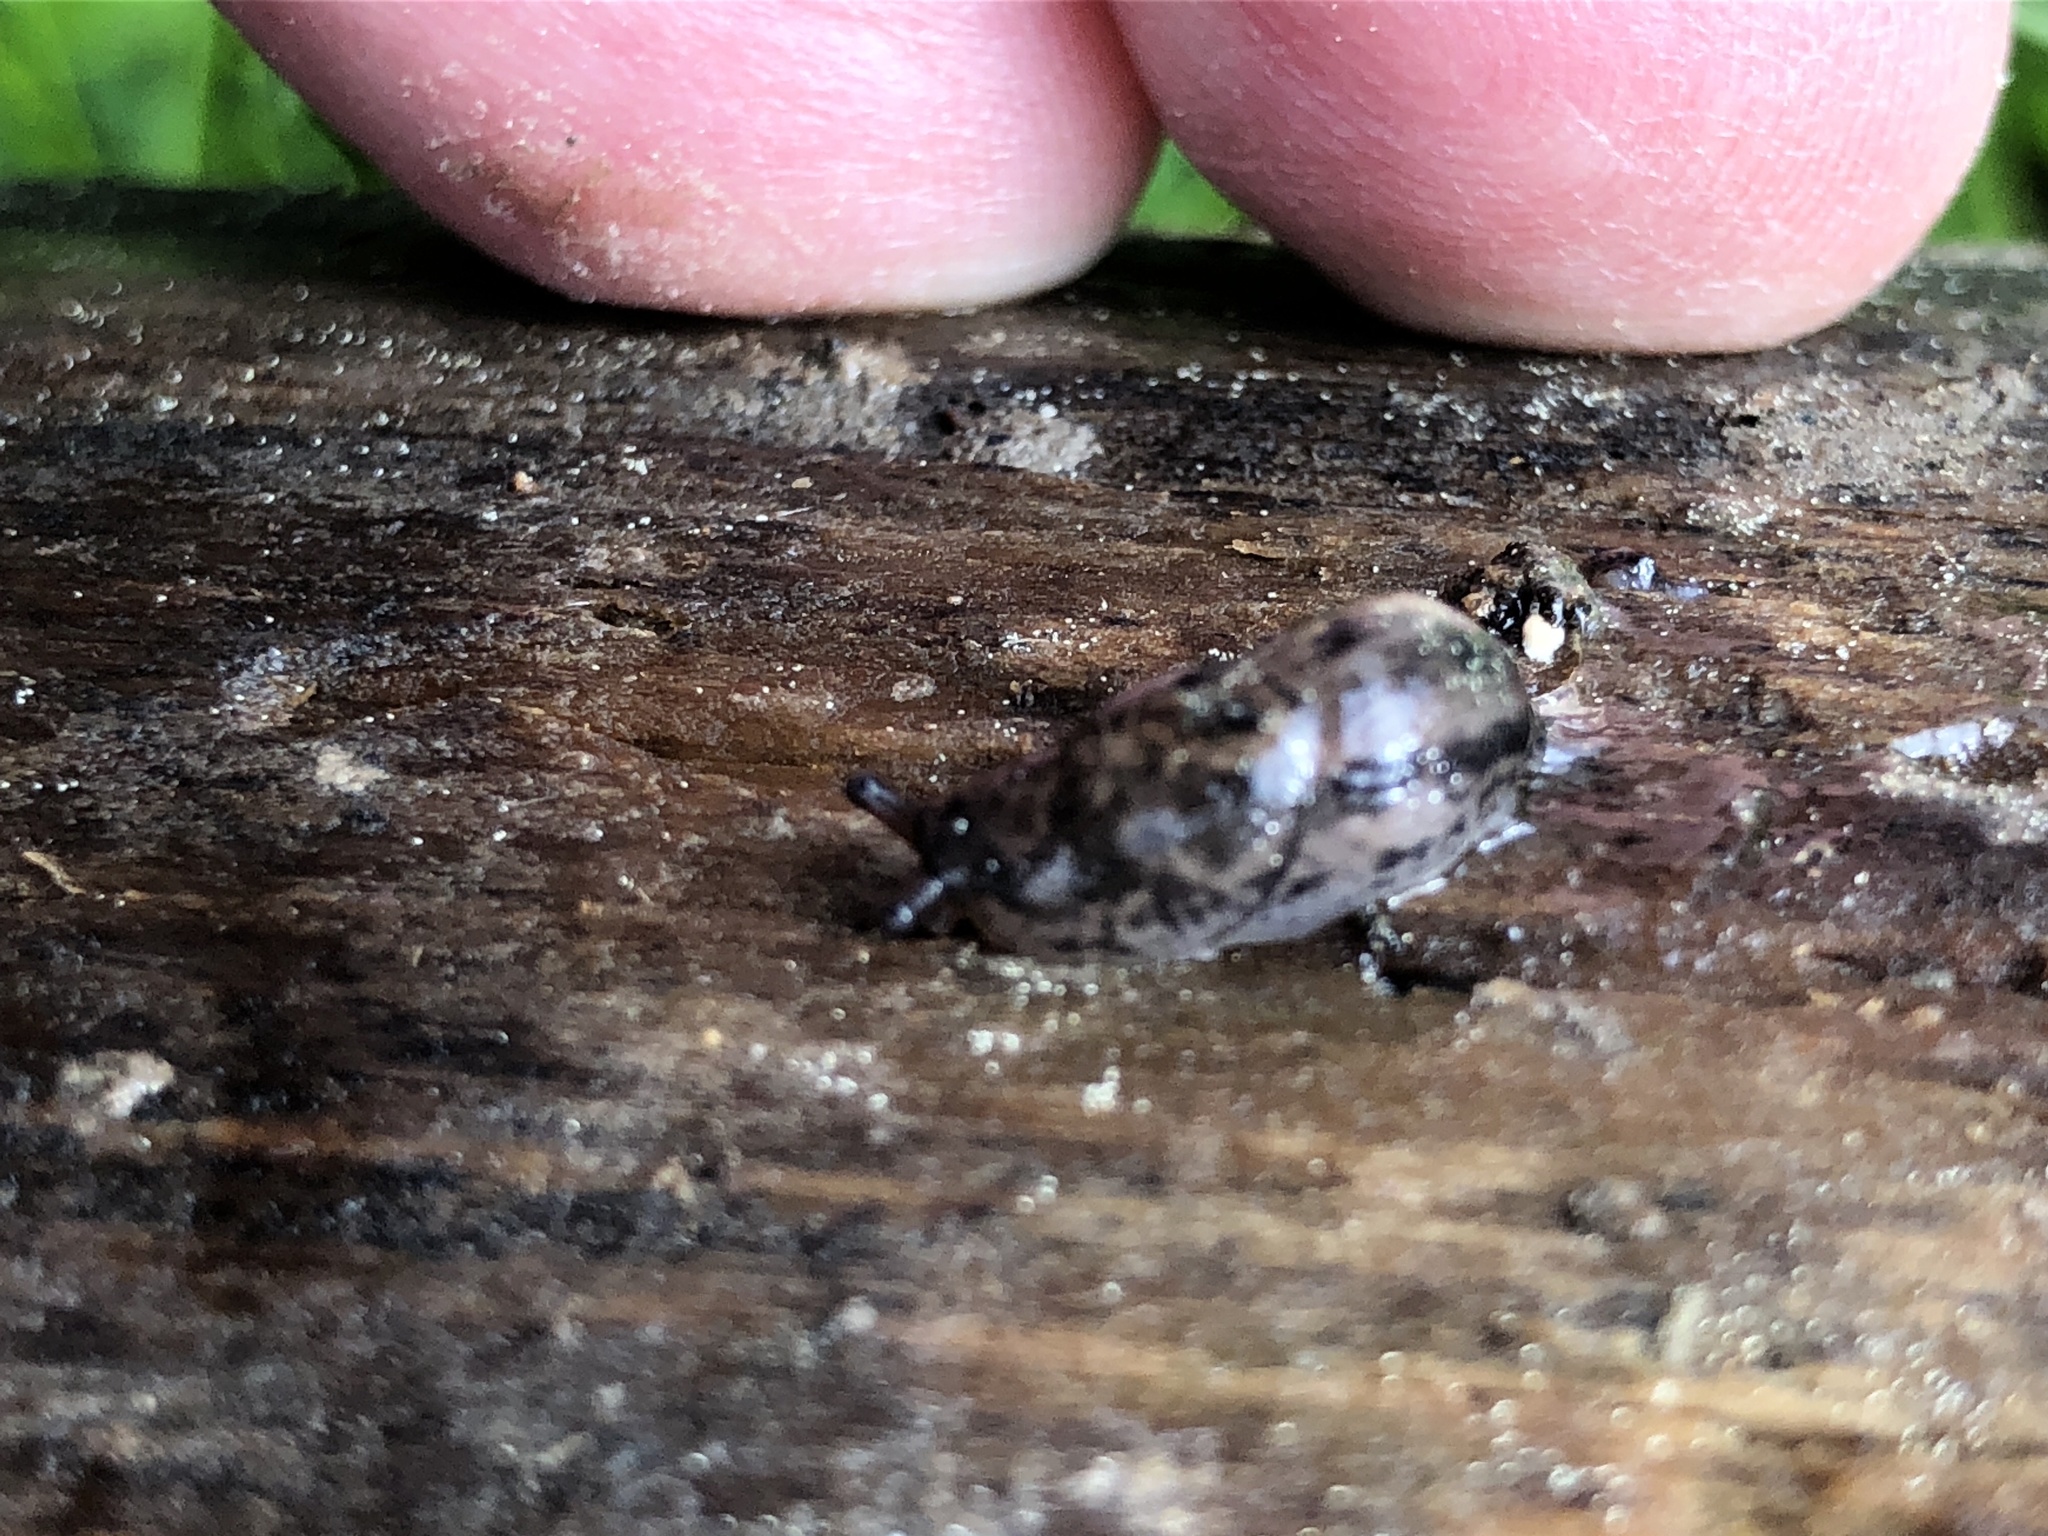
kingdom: Animalia
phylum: Mollusca
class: Gastropoda
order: Stylommatophora
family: Limacidae
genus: Limax
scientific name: Limax maximus
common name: Great grey slug
